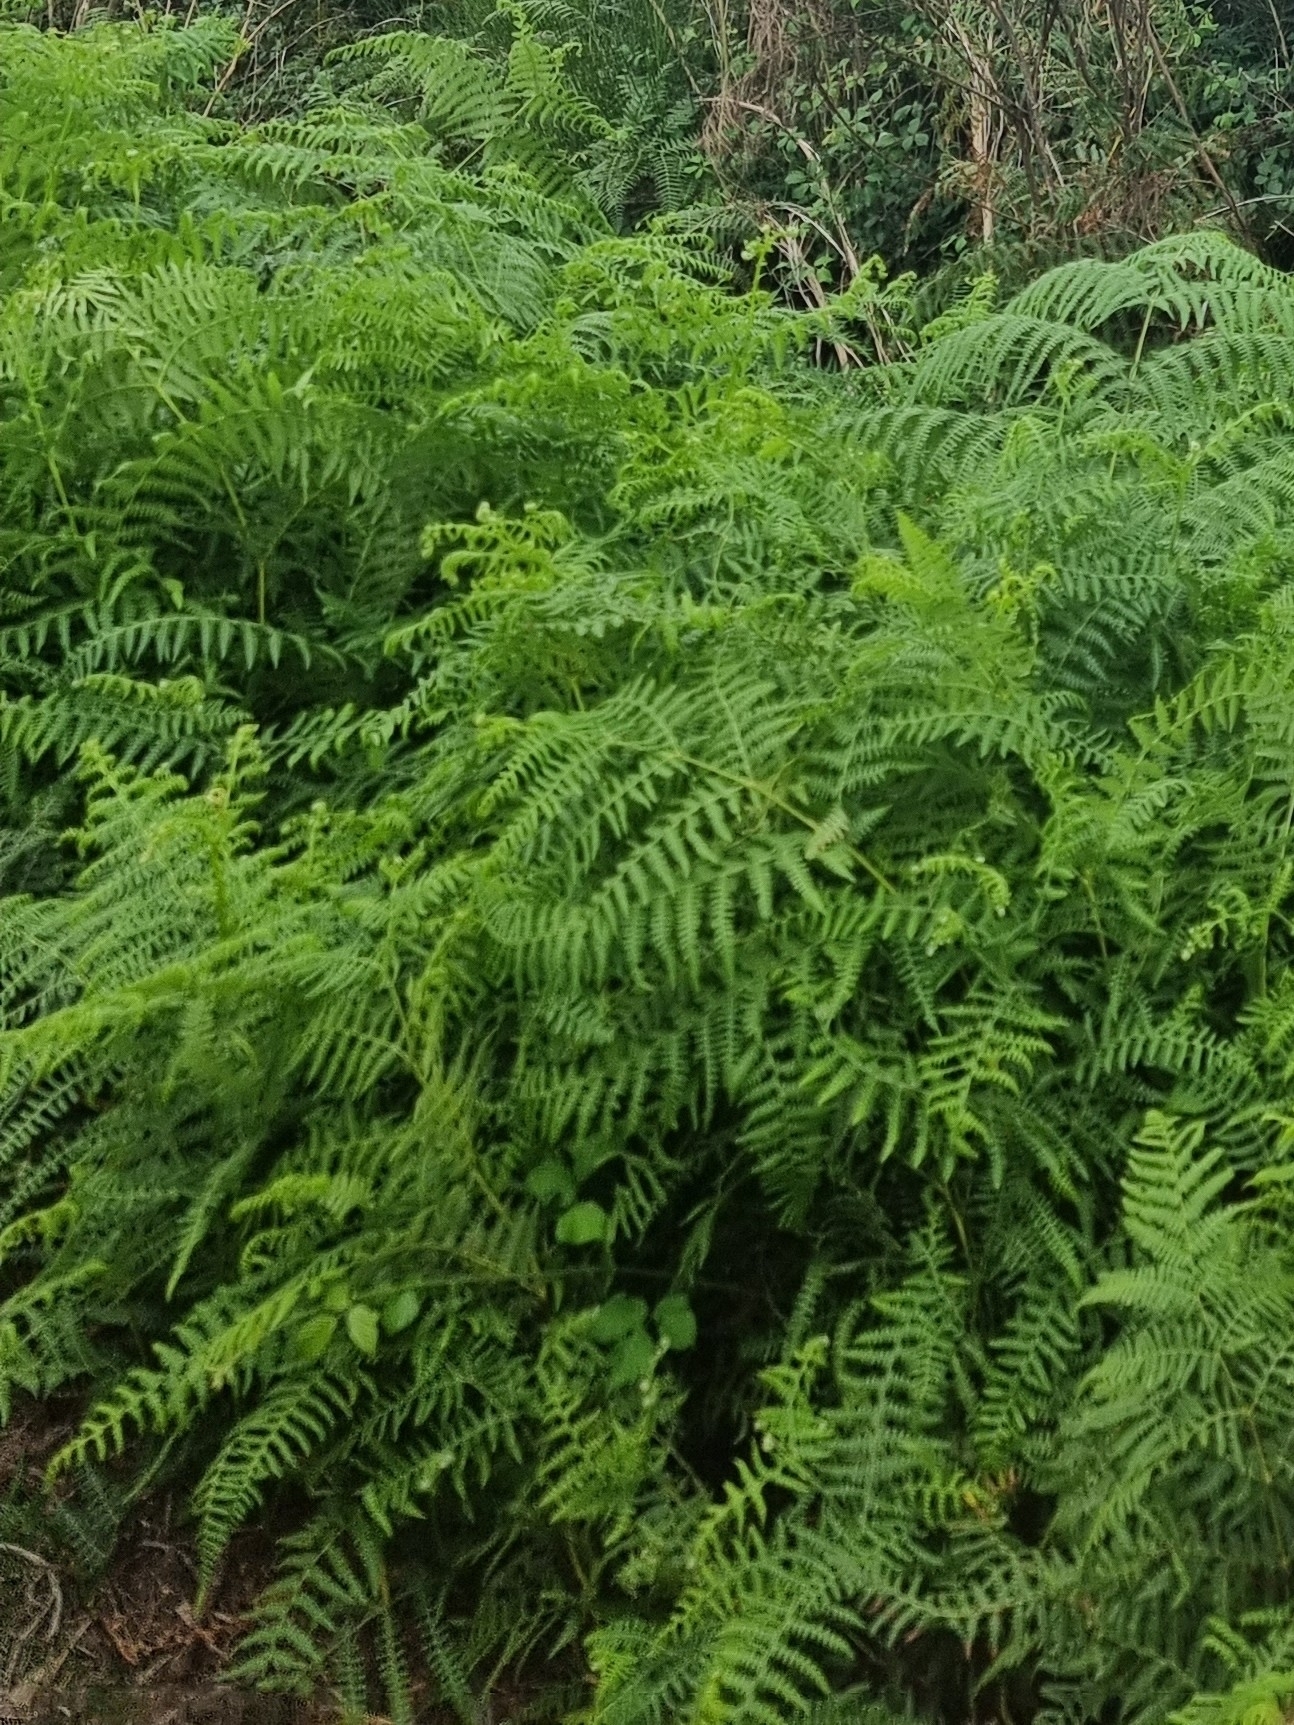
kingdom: Plantae
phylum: Tracheophyta
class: Polypodiopsida
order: Polypodiales
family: Dennstaedtiaceae
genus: Pteridium
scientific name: Pteridium aquilinum
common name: Bracken
